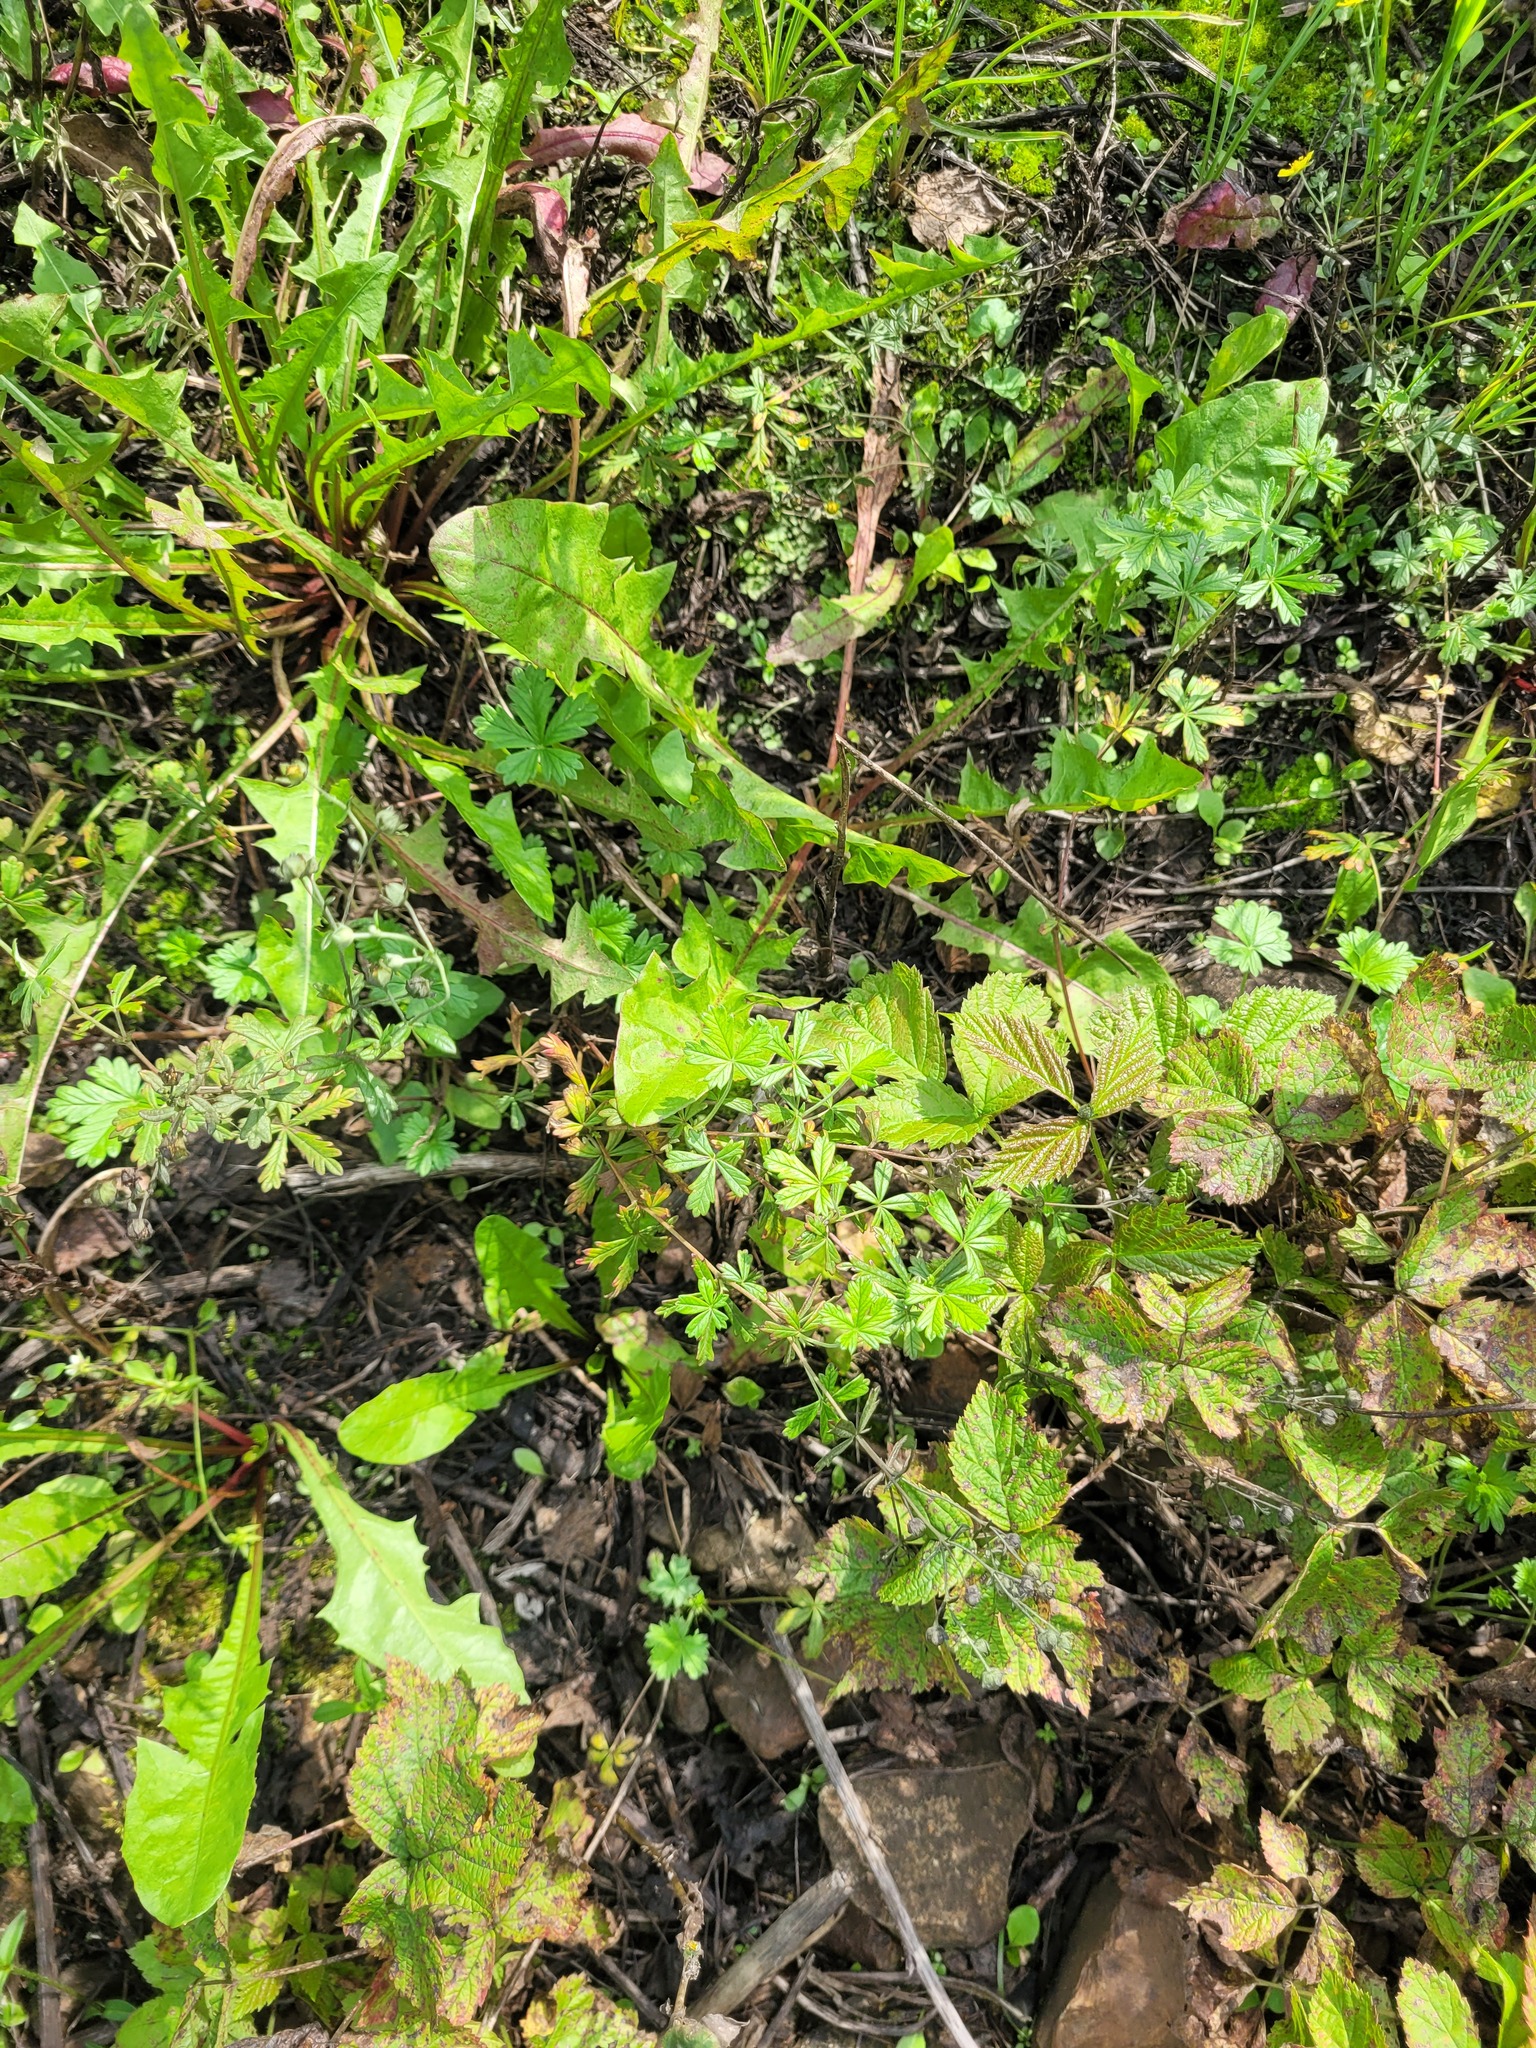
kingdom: Plantae
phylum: Tracheophyta
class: Magnoliopsida
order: Rosales
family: Rosaceae
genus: Potentilla
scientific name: Potentilla argentea
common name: Hoary cinquefoil
